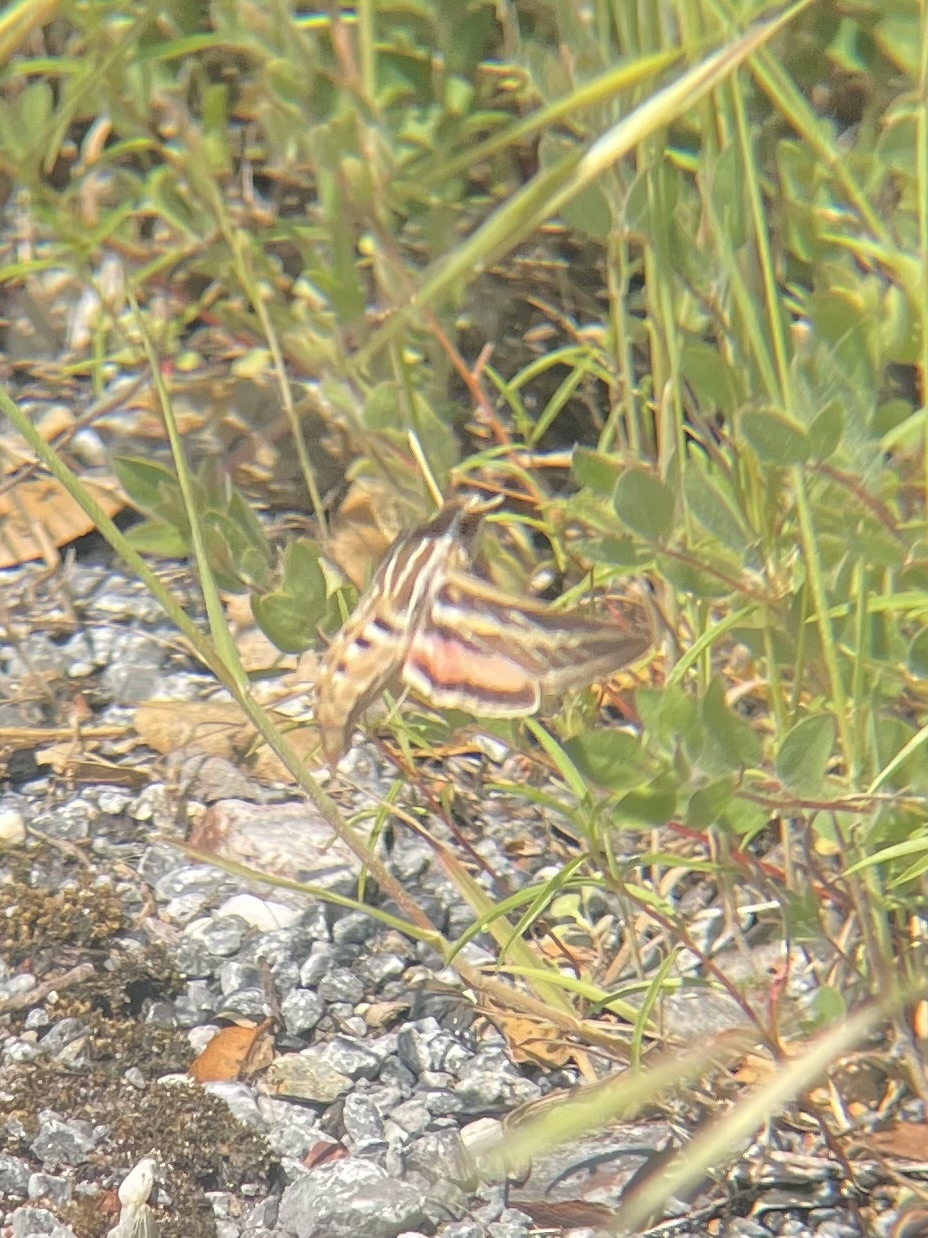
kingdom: Animalia
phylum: Arthropoda
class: Insecta
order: Lepidoptera
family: Sphingidae
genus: Hyles
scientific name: Hyles lineata
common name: White-lined sphinx
